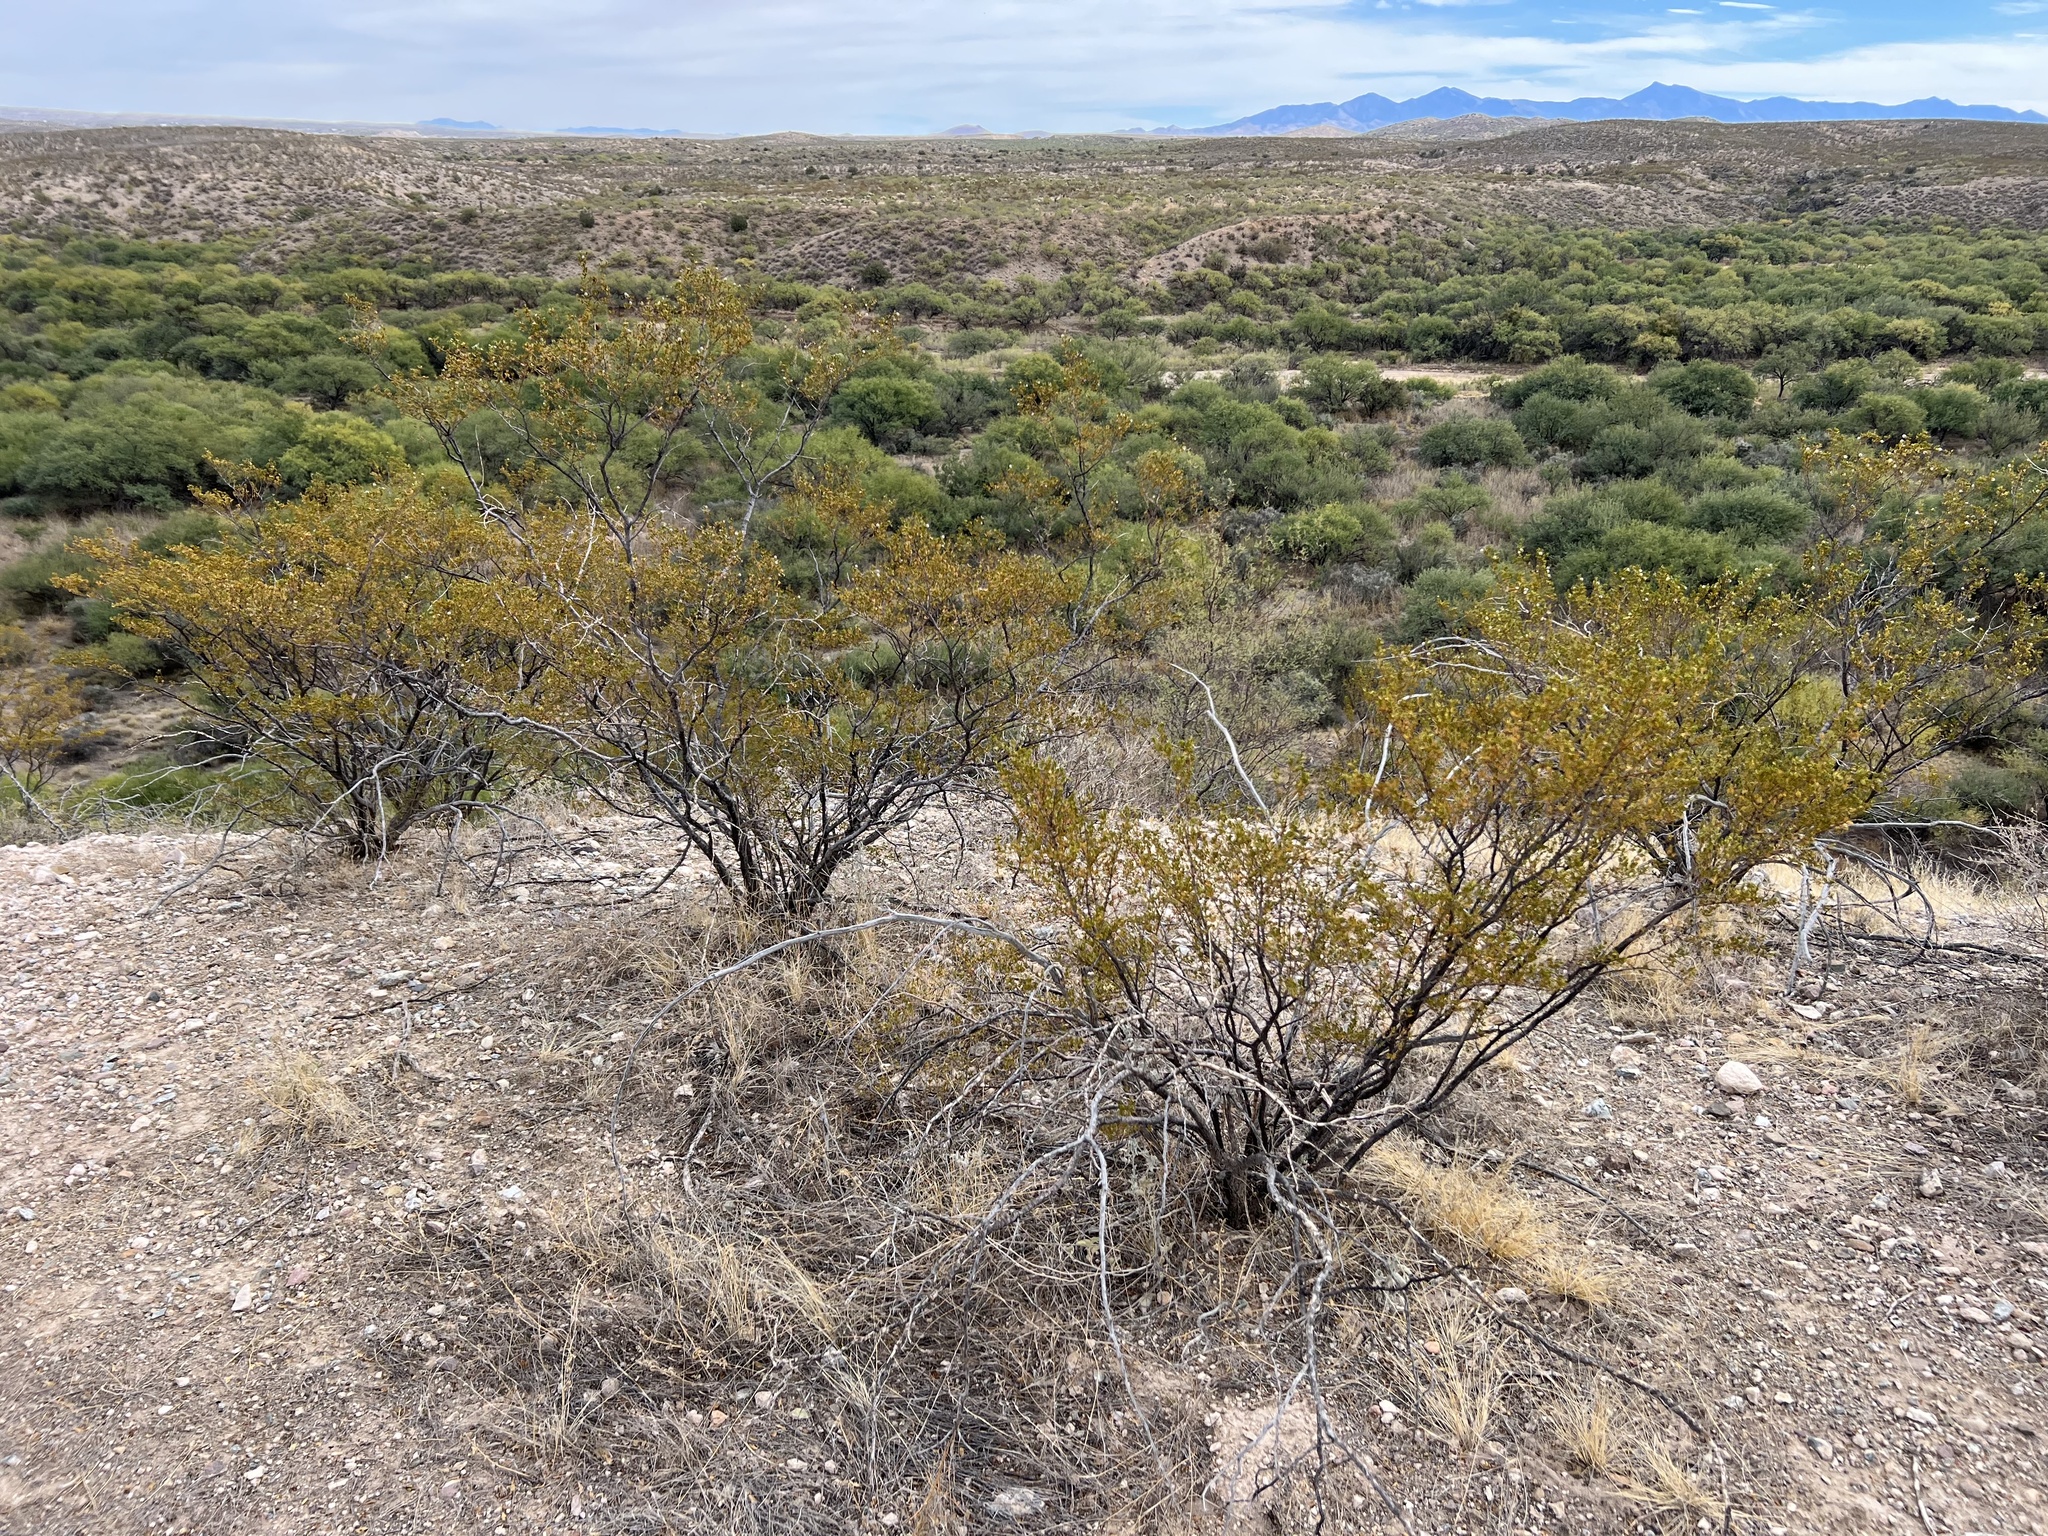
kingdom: Plantae
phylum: Tracheophyta
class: Magnoliopsida
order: Zygophyllales
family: Zygophyllaceae
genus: Larrea
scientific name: Larrea tridentata
